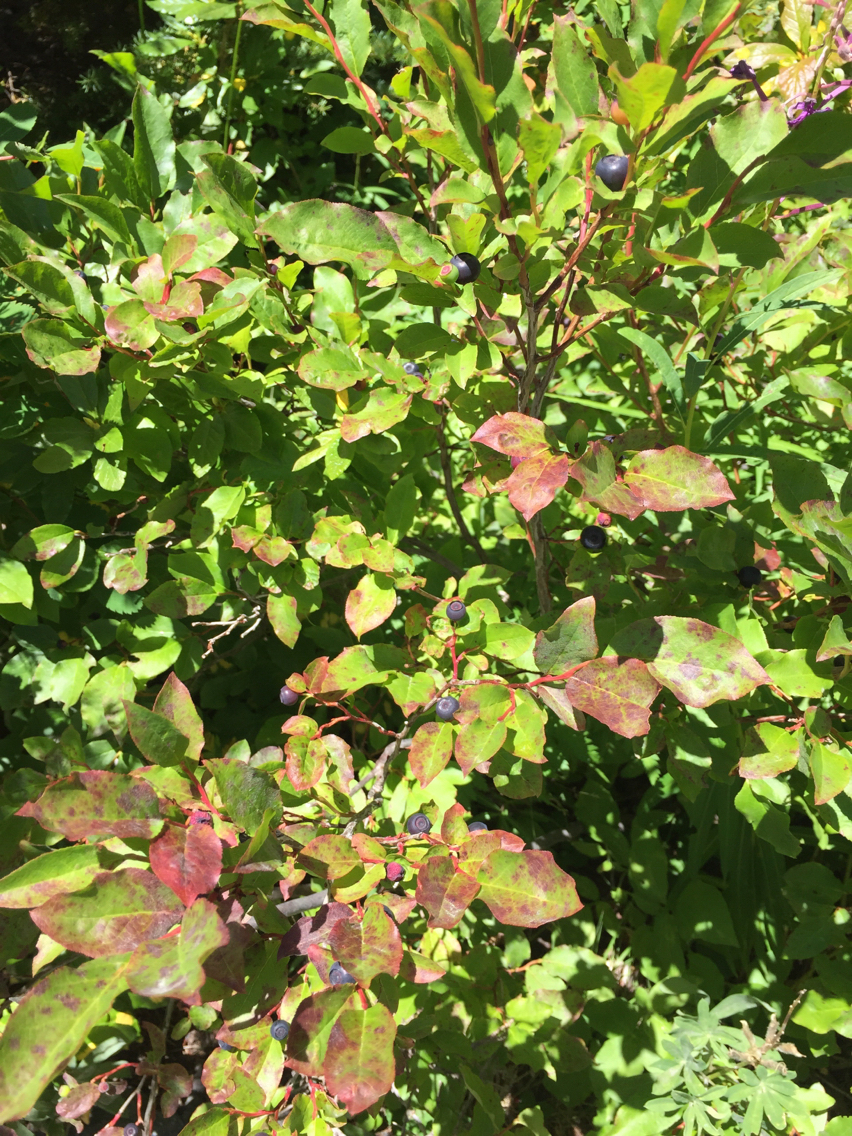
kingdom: Plantae
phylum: Tracheophyta
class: Magnoliopsida
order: Ericales
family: Ericaceae
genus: Vaccinium
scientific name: Vaccinium membranaceum
